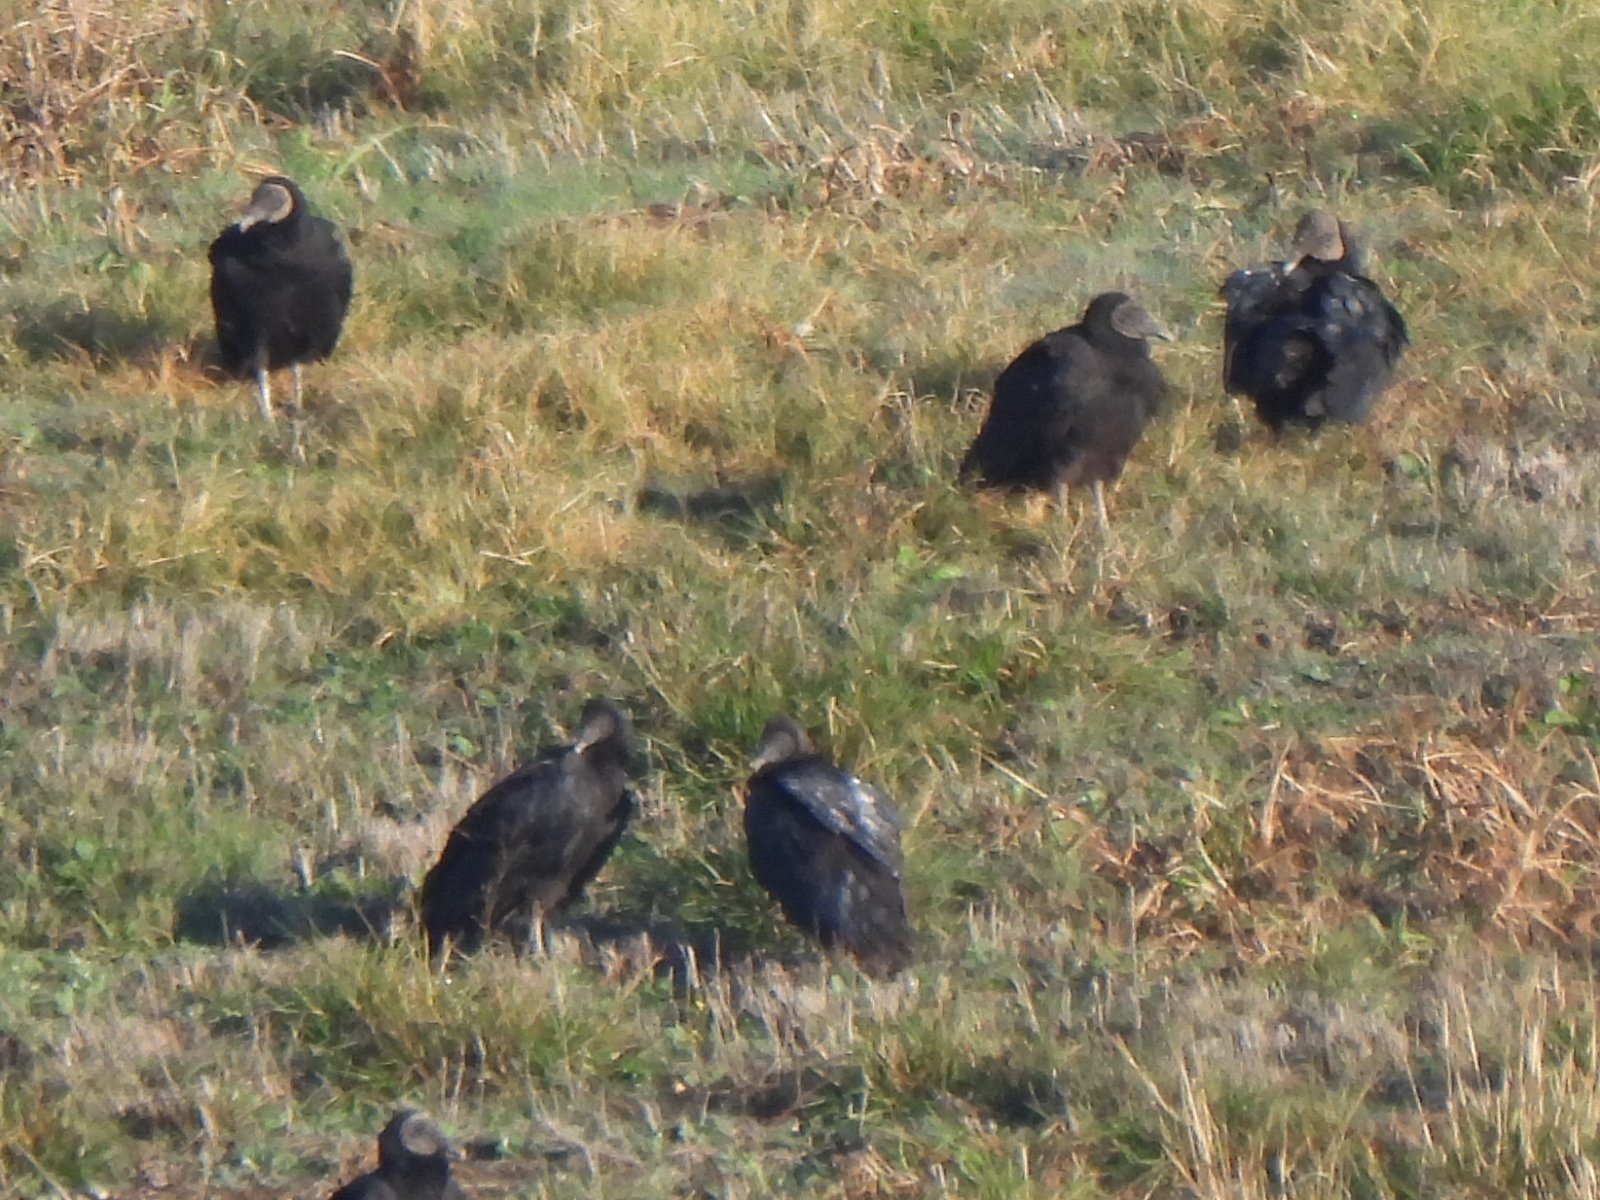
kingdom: Animalia
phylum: Chordata
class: Aves
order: Accipitriformes
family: Cathartidae
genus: Coragyps
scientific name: Coragyps atratus
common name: Black vulture
